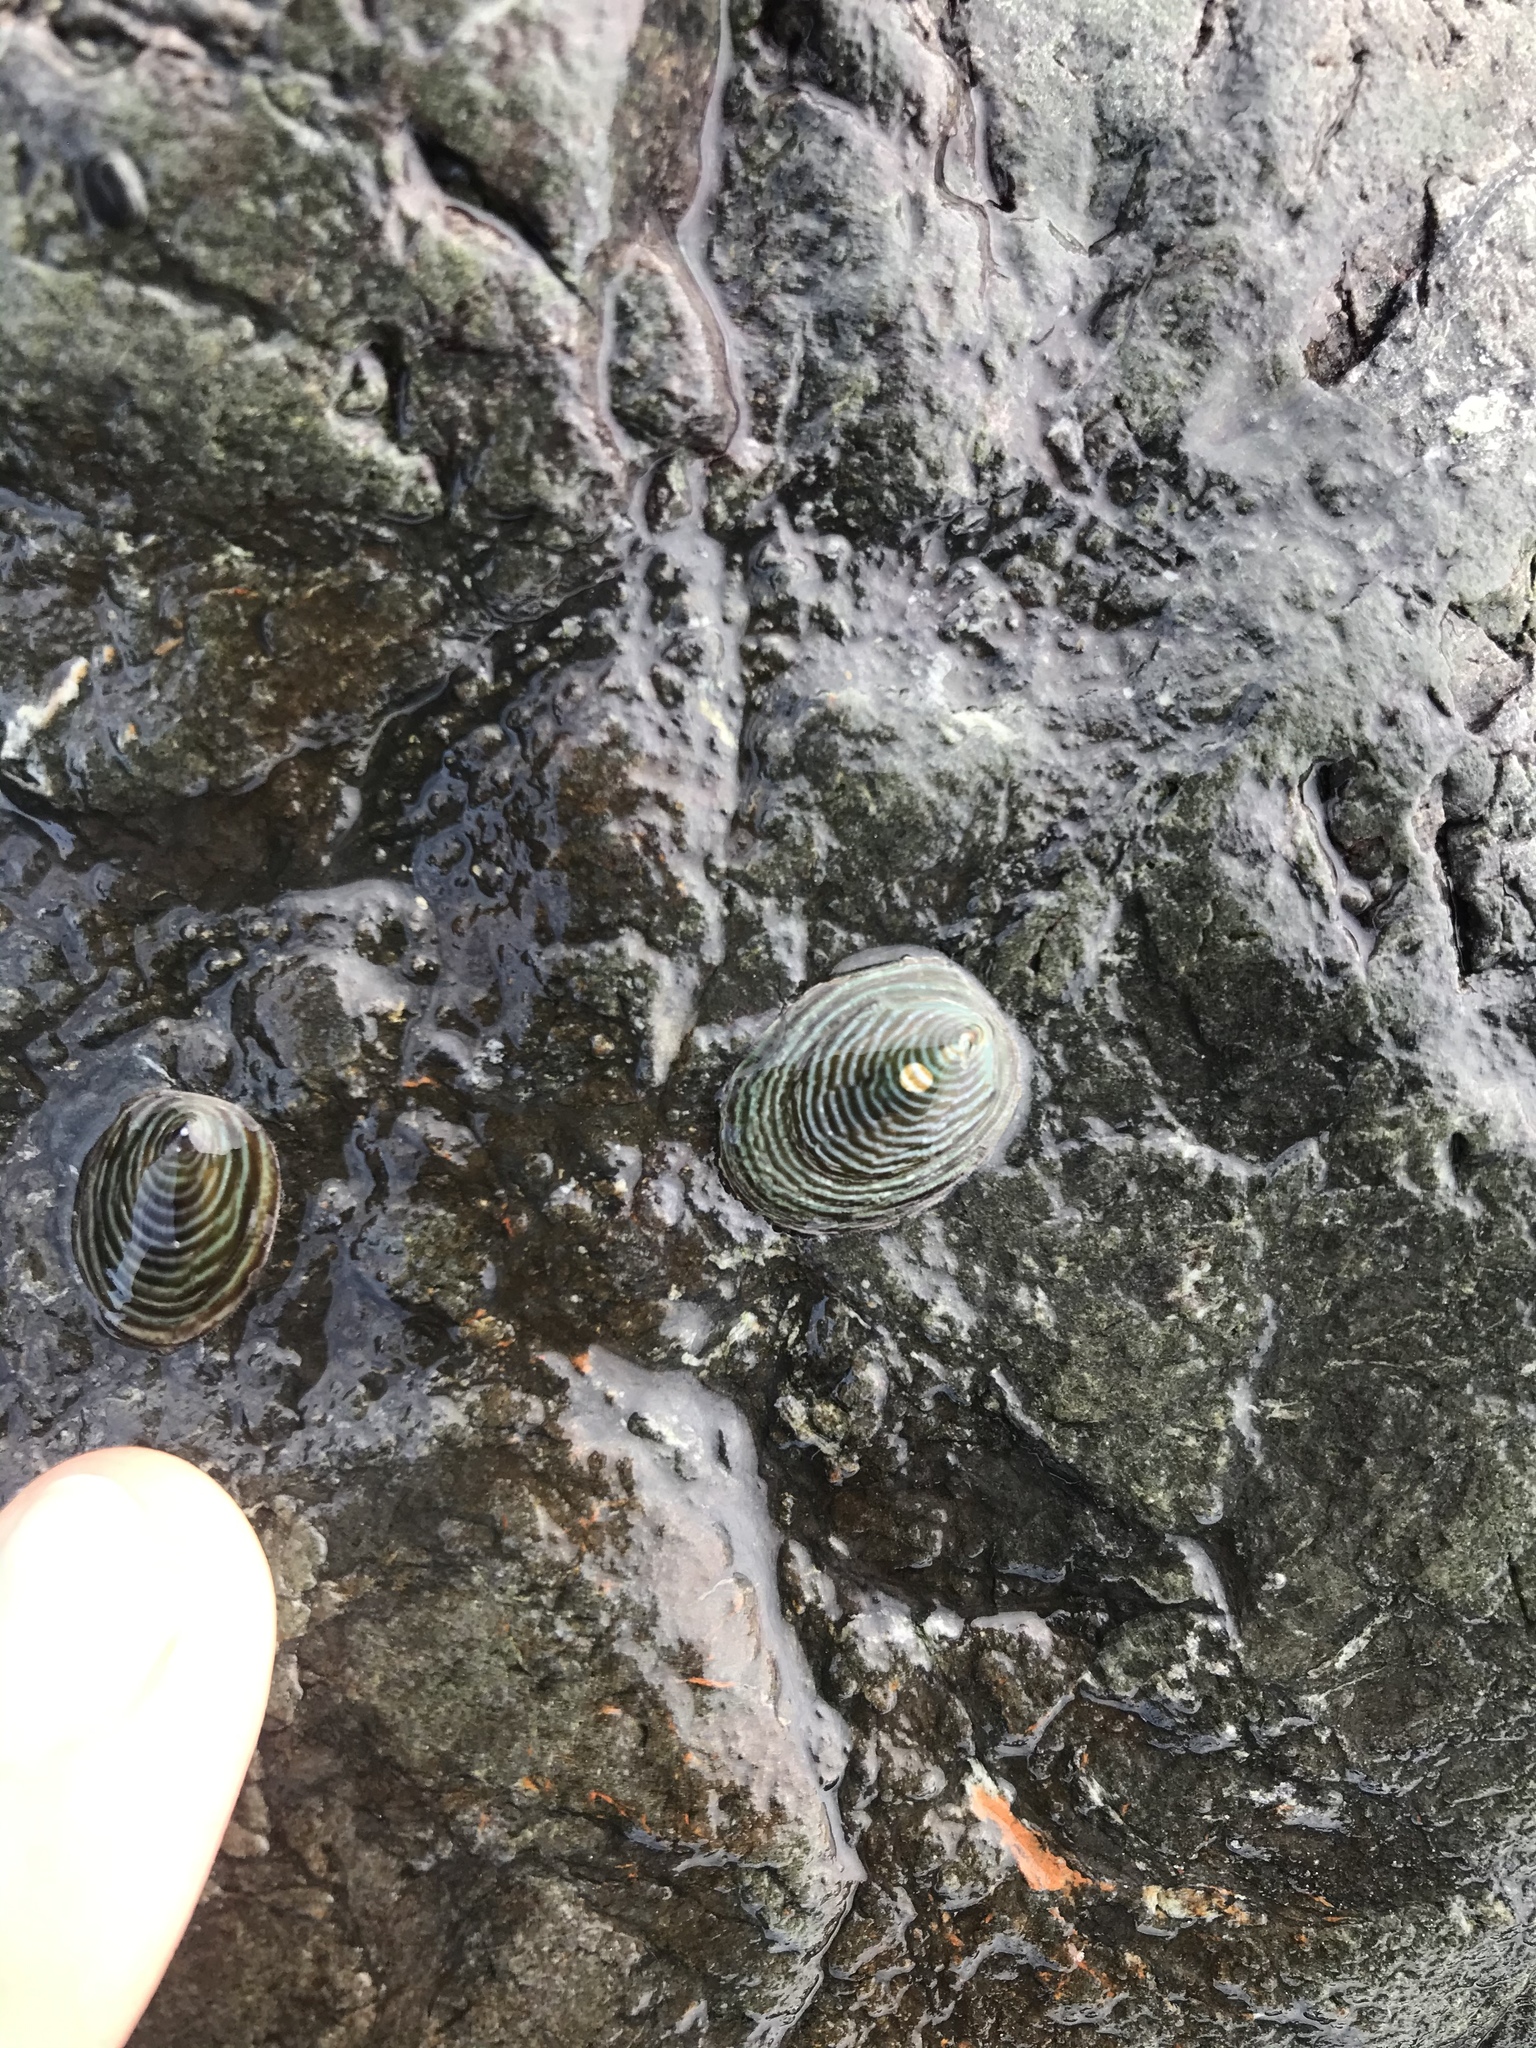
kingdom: Animalia
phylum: Mollusca
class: Gastropoda
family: Lottiidae
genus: Atalacmea
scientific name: Atalacmea fragilis
